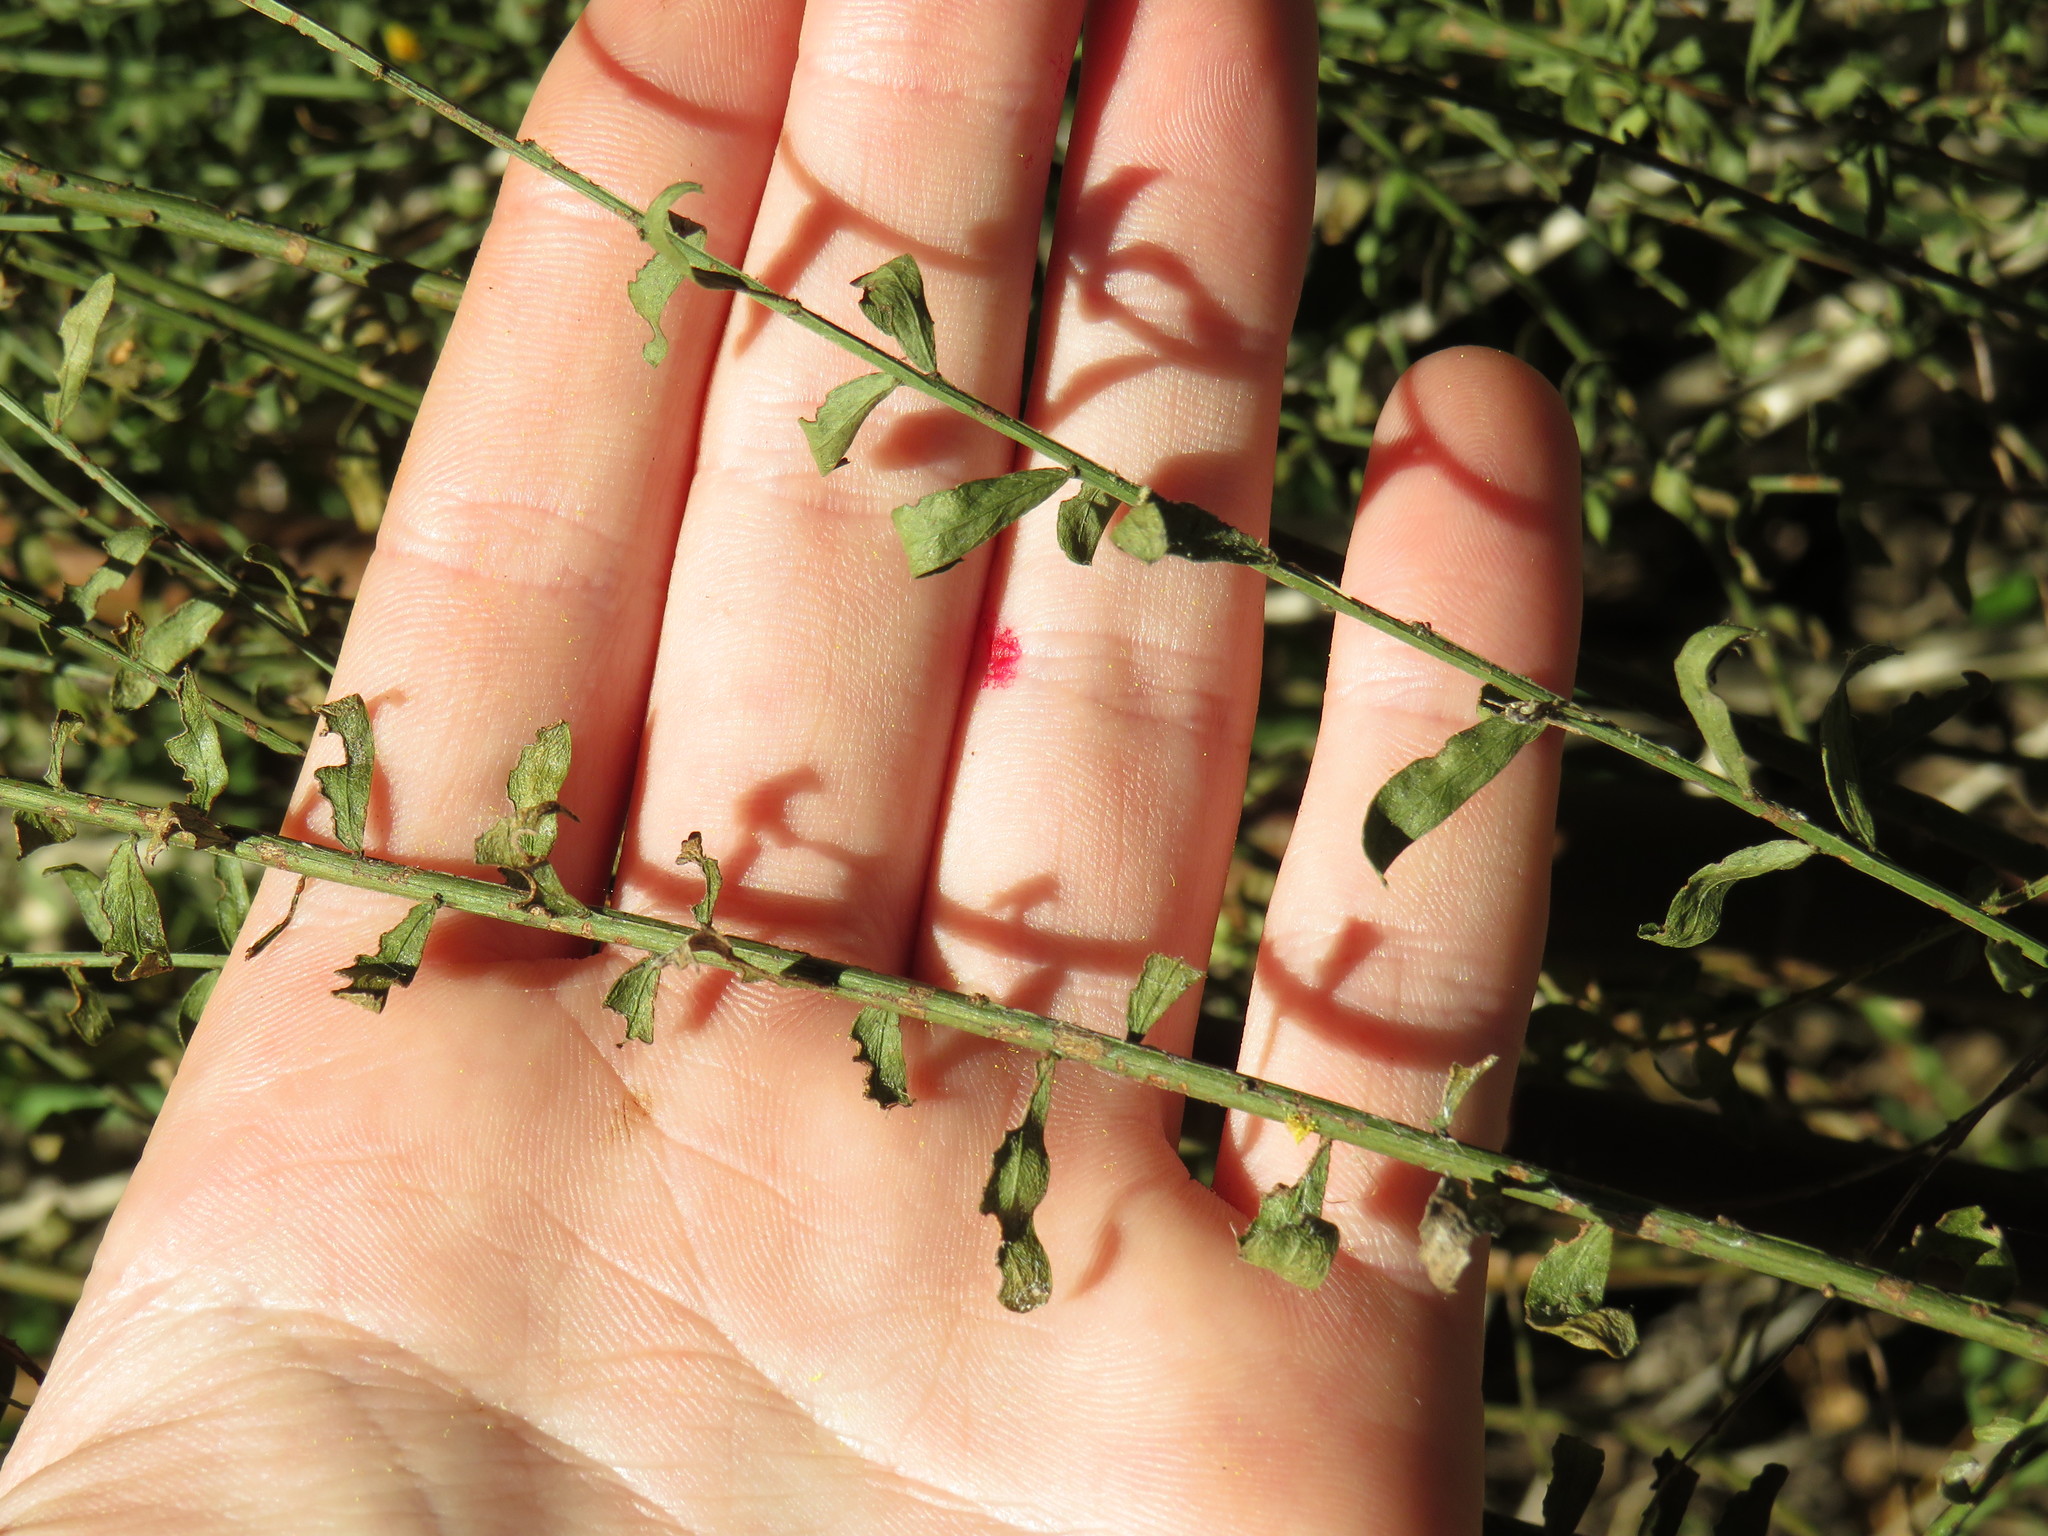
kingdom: Plantae
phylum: Tracheophyta
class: Magnoliopsida
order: Fabales
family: Fabaceae
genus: Acacia
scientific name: Acacia acinacea
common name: Gold-dust acacia
